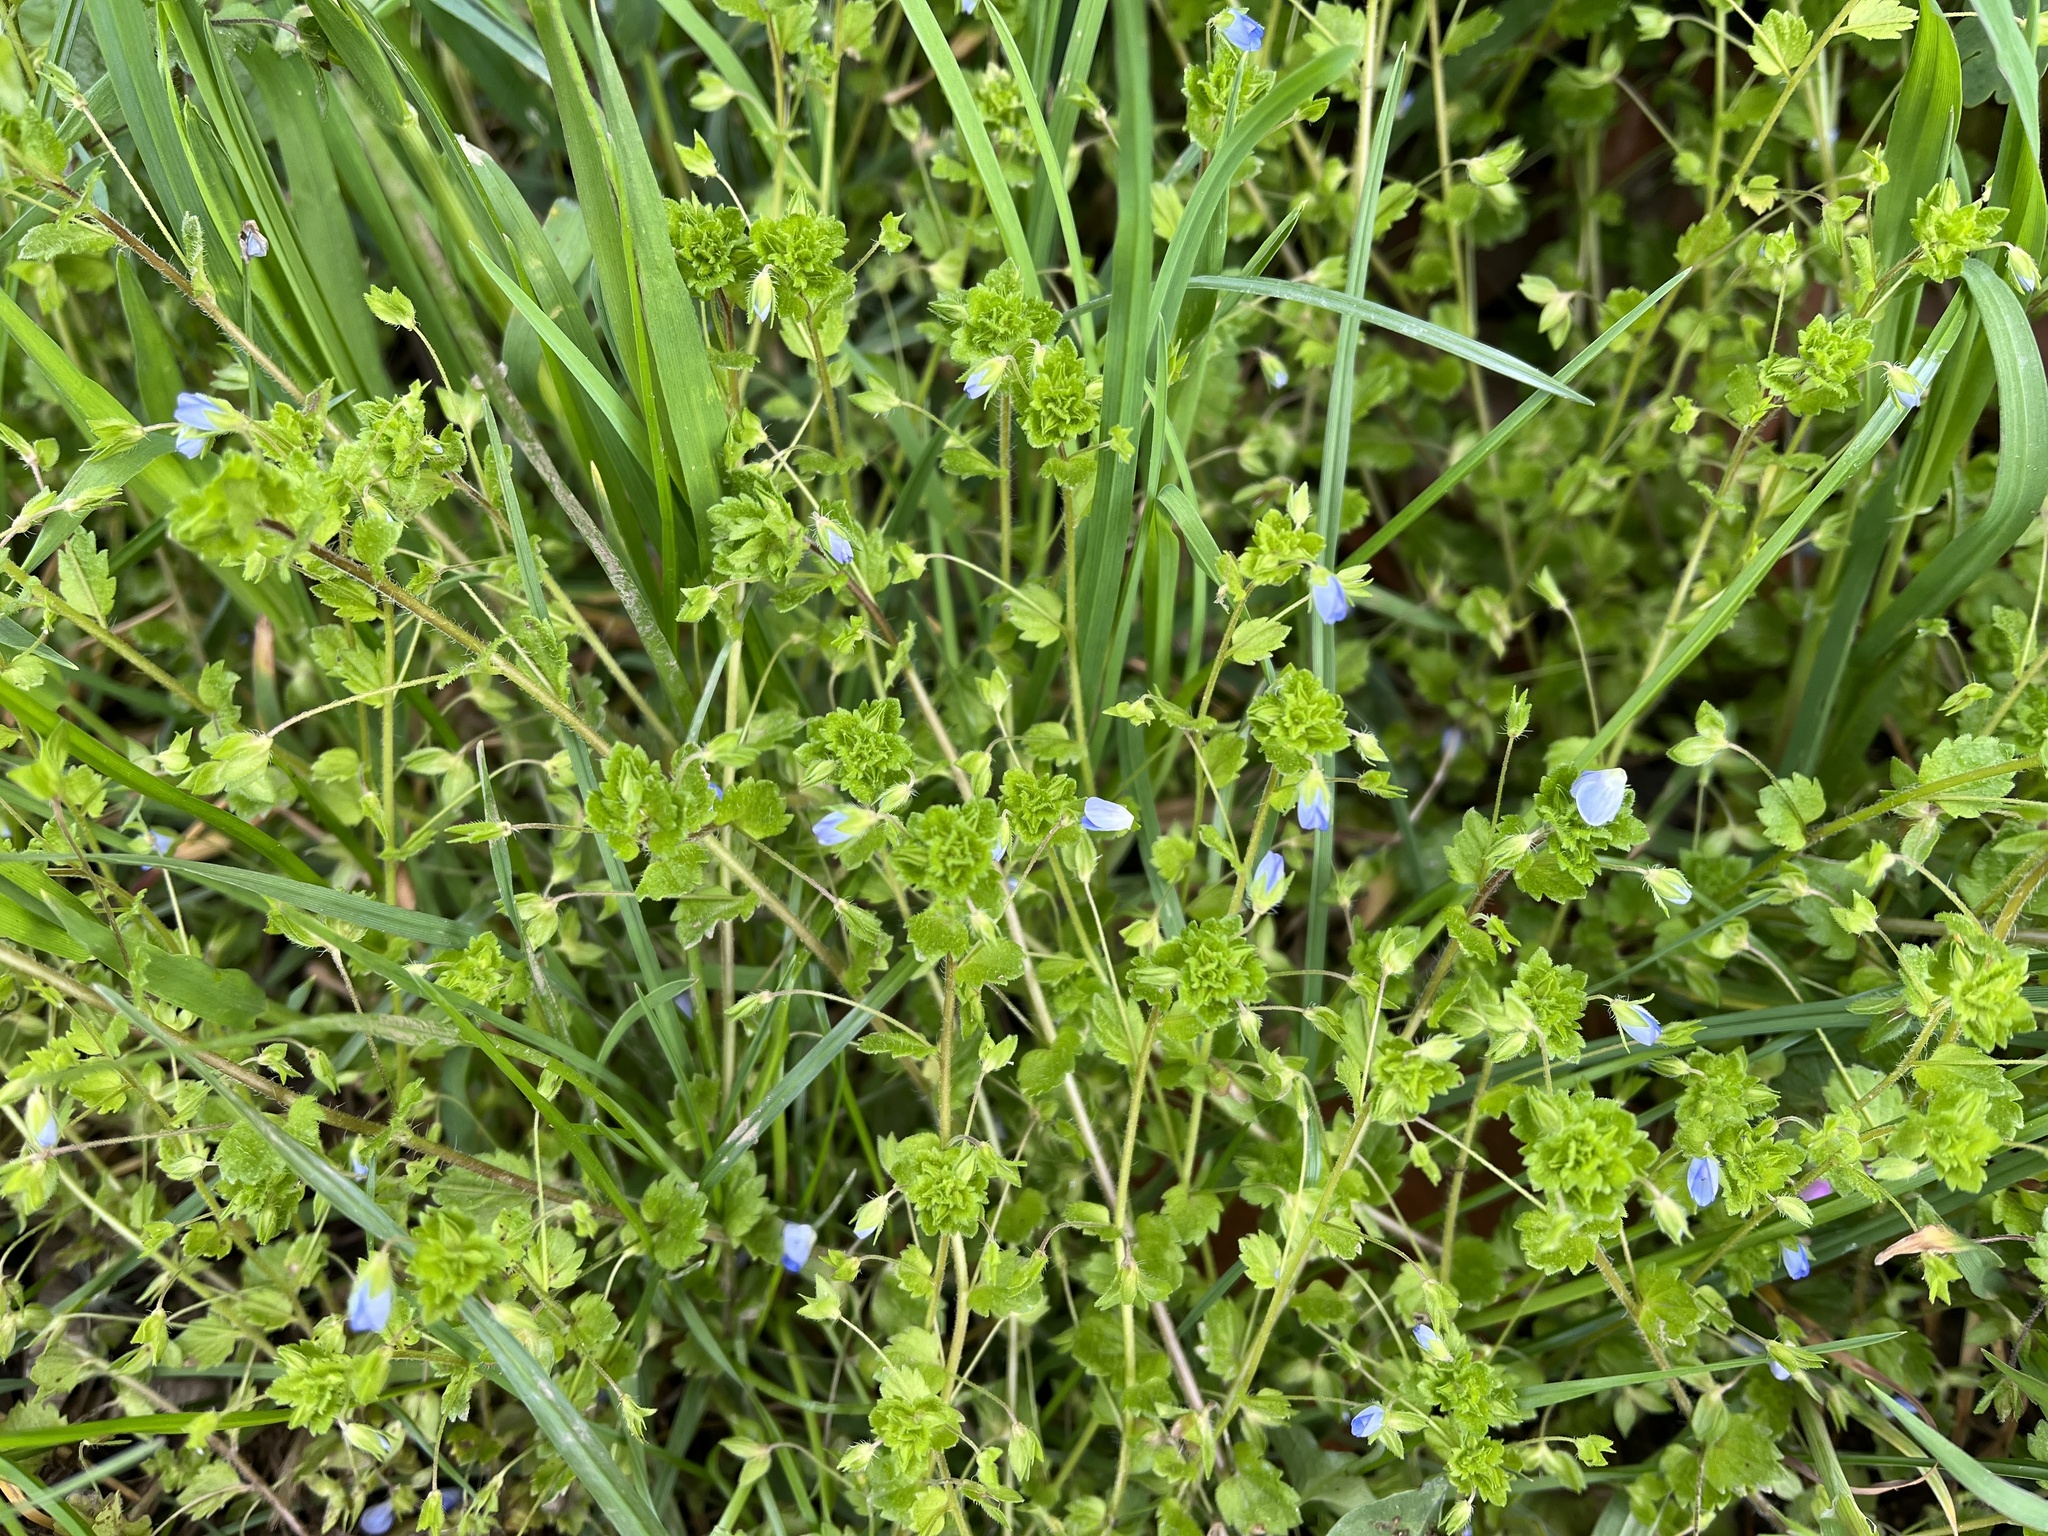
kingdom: Plantae
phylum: Tracheophyta
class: Magnoliopsida
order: Lamiales
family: Plantaginaceae
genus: Veronica
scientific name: Veronica persica
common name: Common field-speedwell
